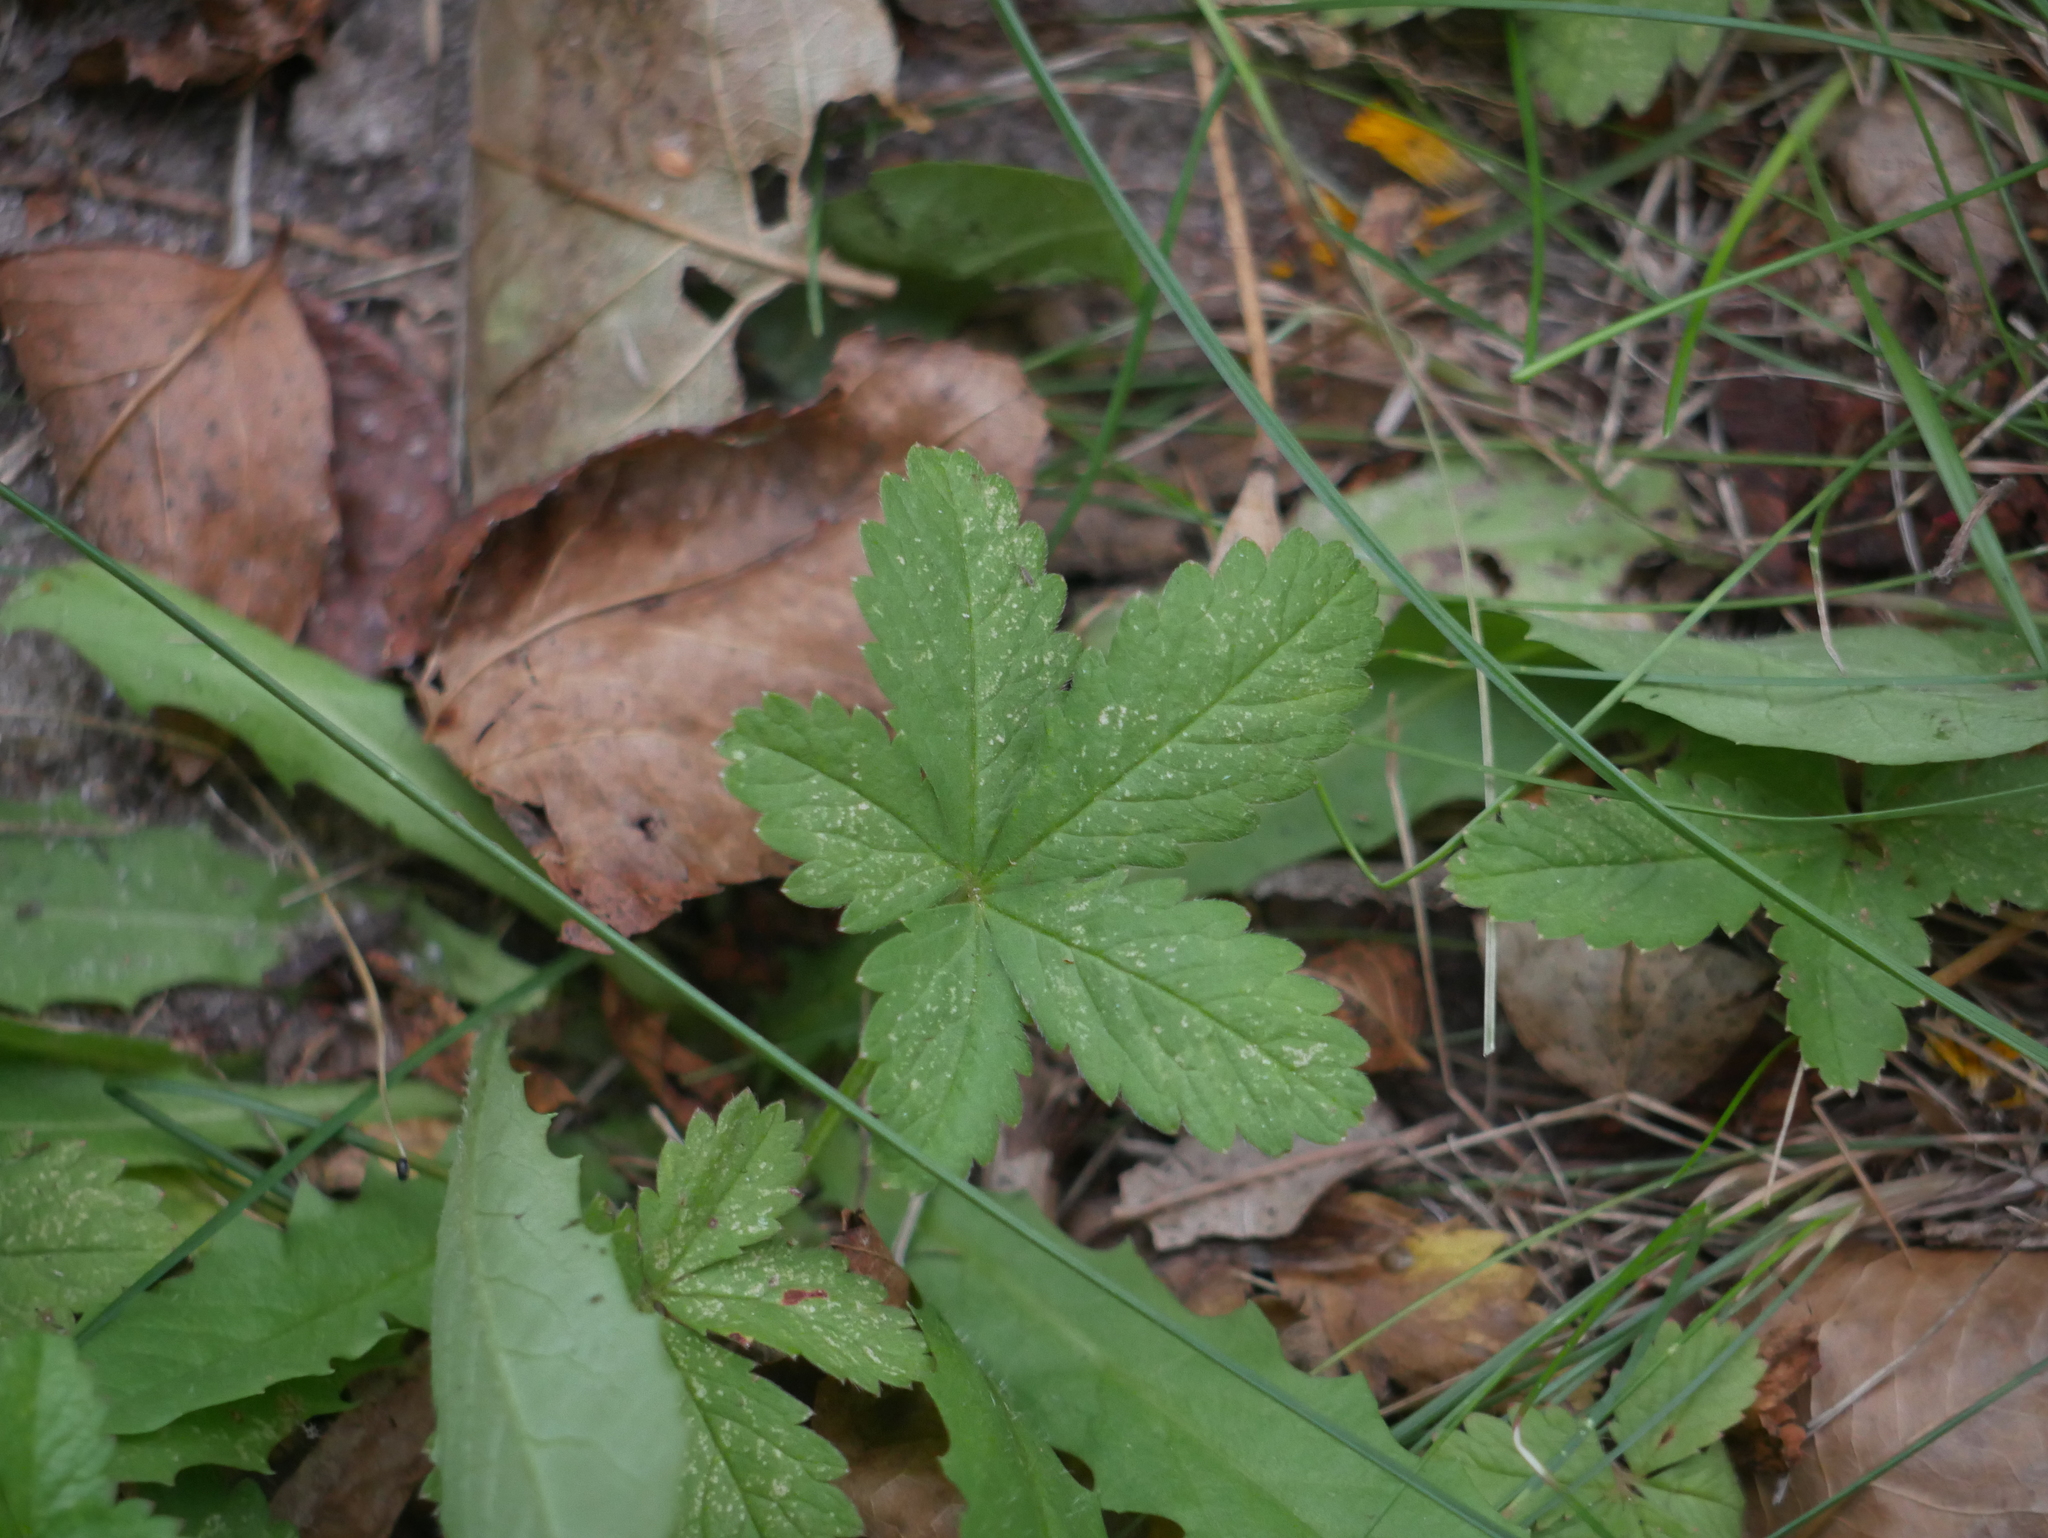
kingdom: Plantae
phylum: Tracheophyta
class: Magnoliopsida
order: Rosales
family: Rosaceae
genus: Potentilla
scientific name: Potentilla reptans
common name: Creeping cinquefoil
